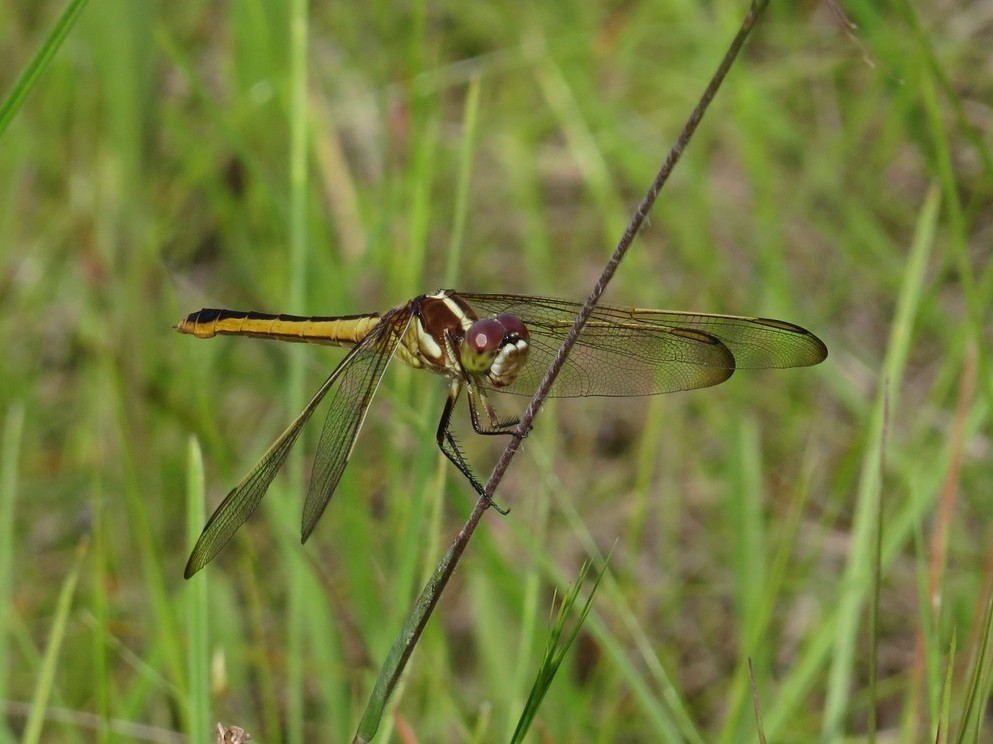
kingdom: Animalia
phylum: Arthropoda
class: Insecta
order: Odonata
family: Libellulidae
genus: Libellula
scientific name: Libellula auripennis
